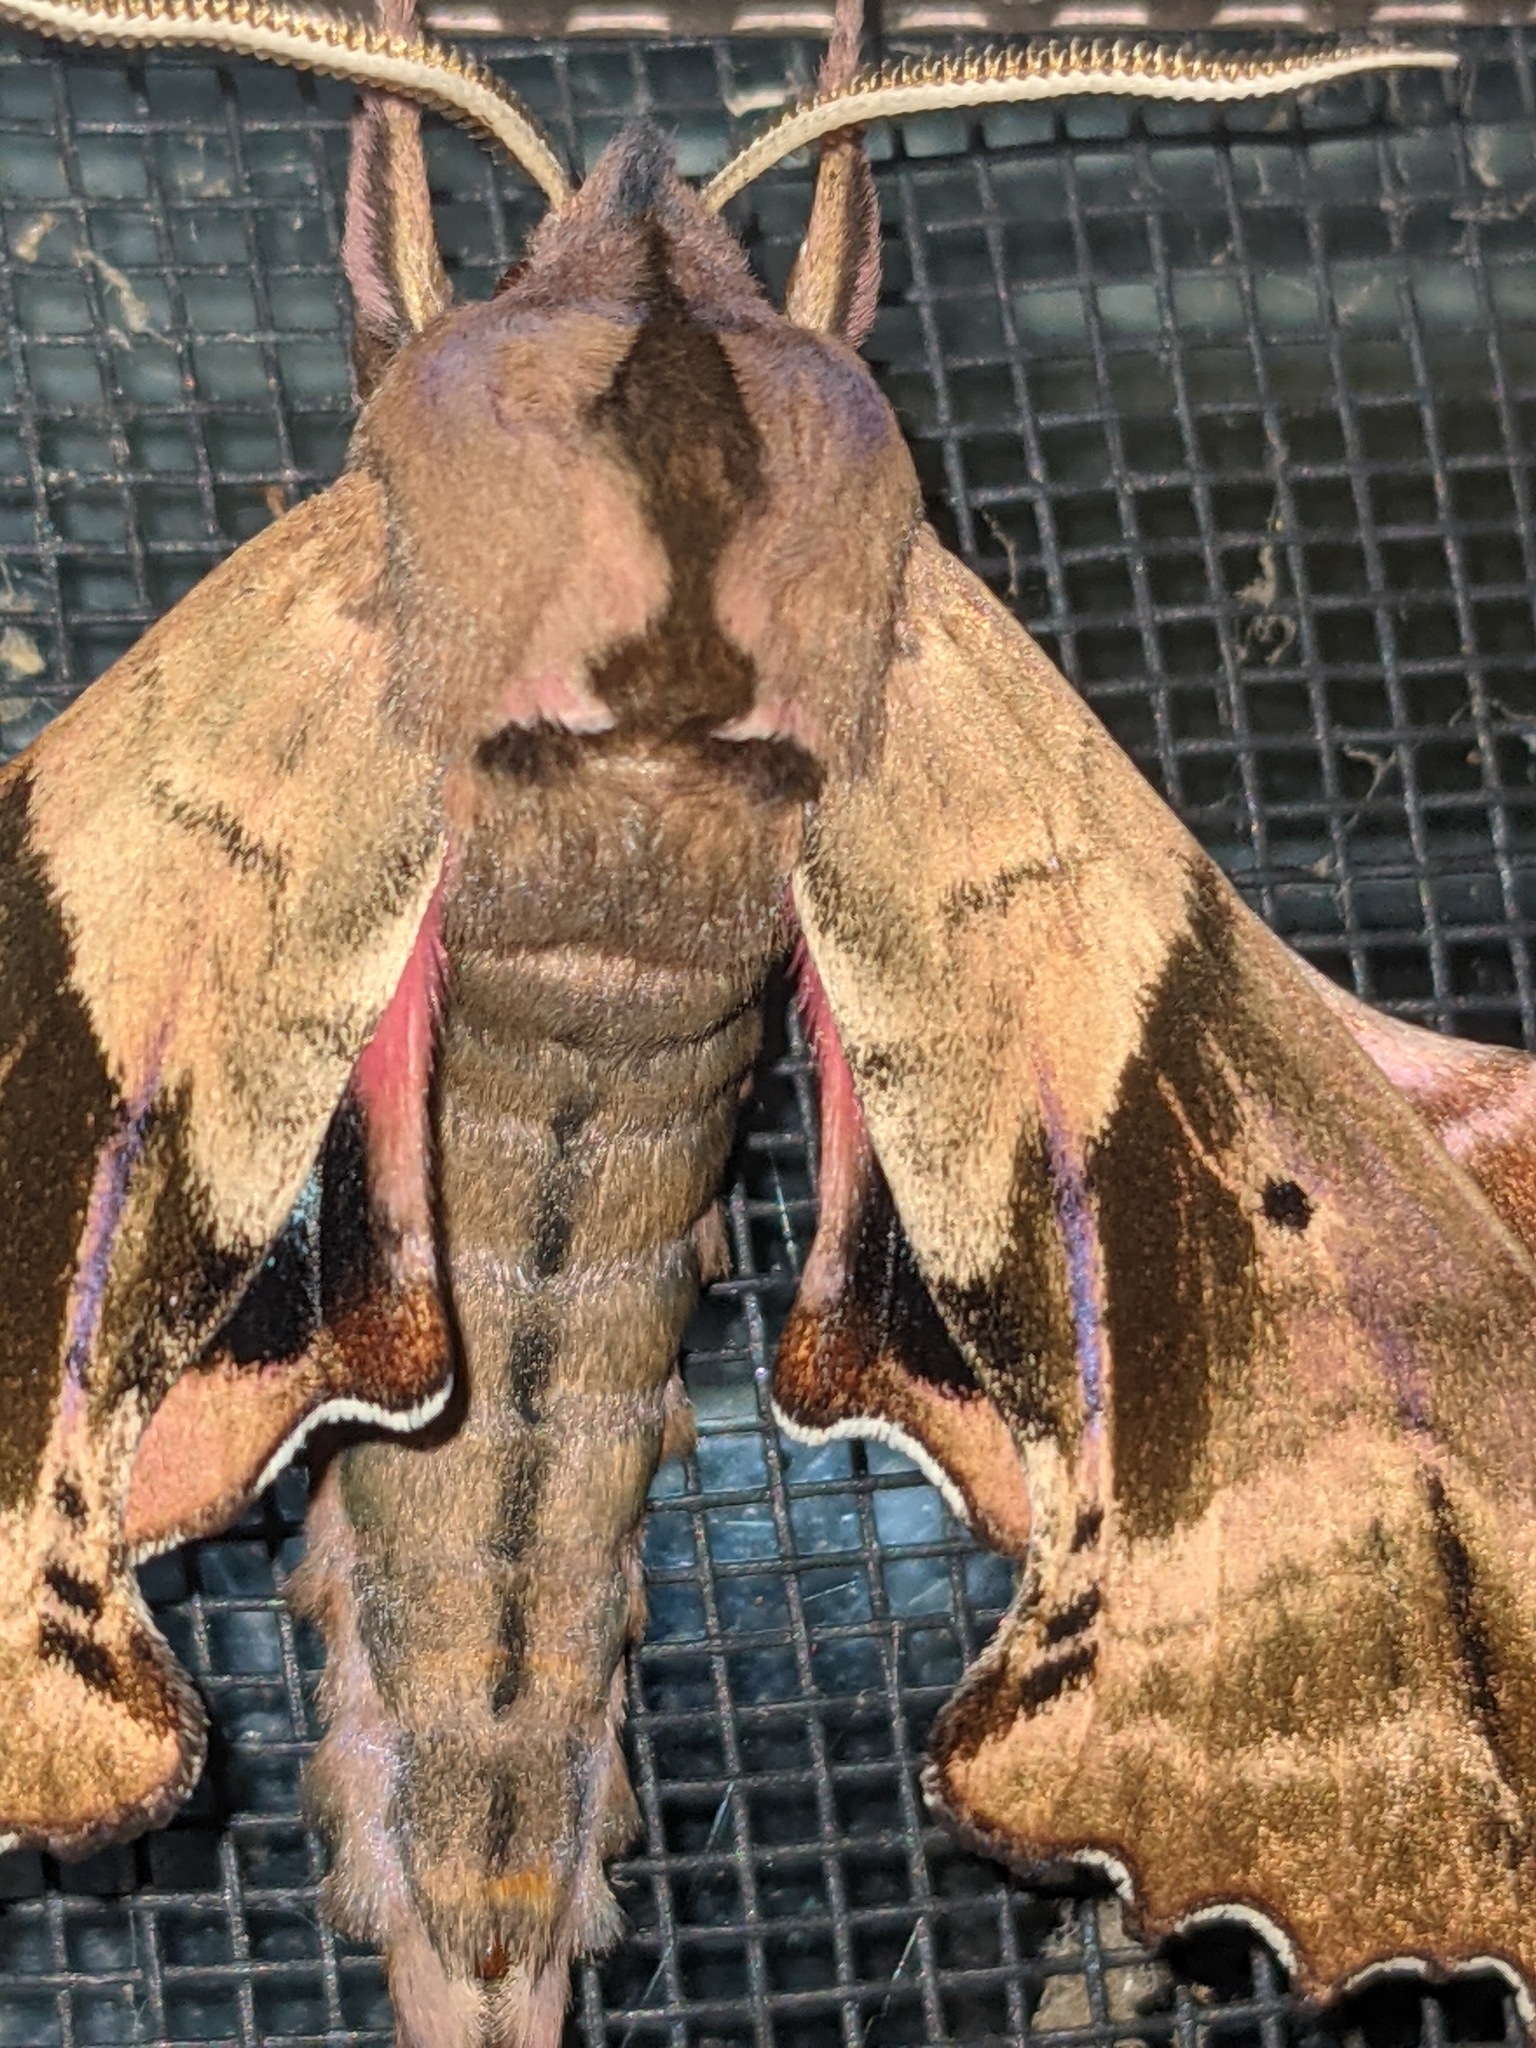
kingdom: Animalia
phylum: Arthropoda
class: Insecta
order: Lepidoptera
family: Sphingidae
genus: Paonias
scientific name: Paonias excaecata
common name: Blind-eyed sphinx
